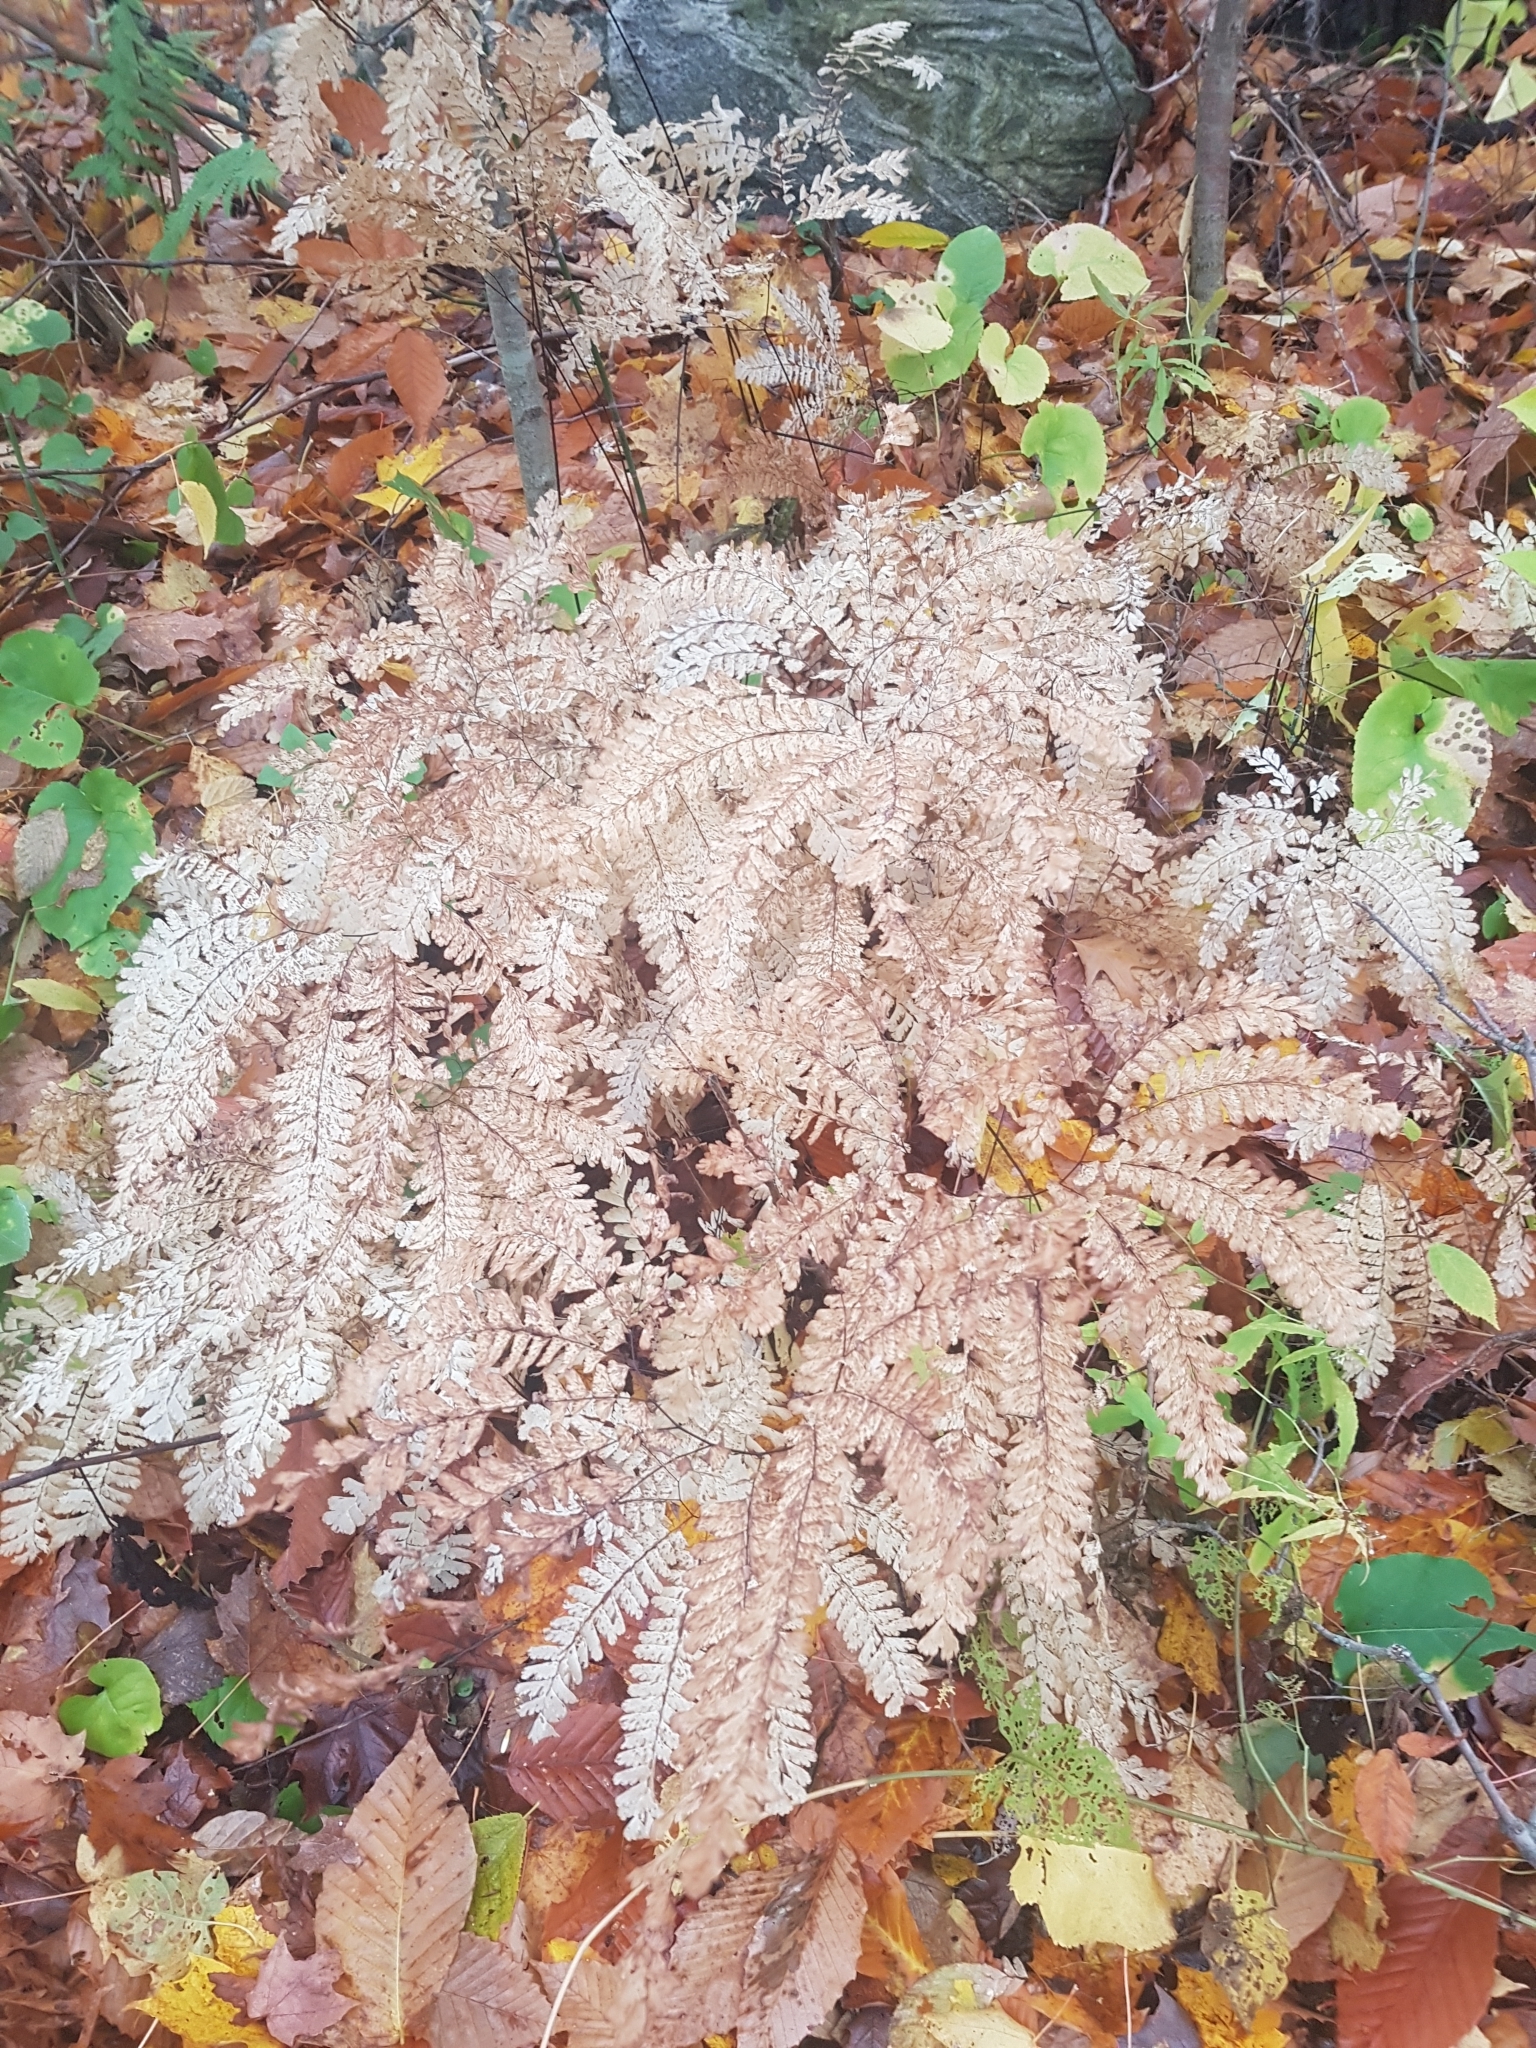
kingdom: Plantae
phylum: Tracheophyta
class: Polypodiopsida
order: Polypodiales
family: Pteridaceae
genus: Adiantum
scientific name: Adiantum pedatum
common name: Five-finger fern
